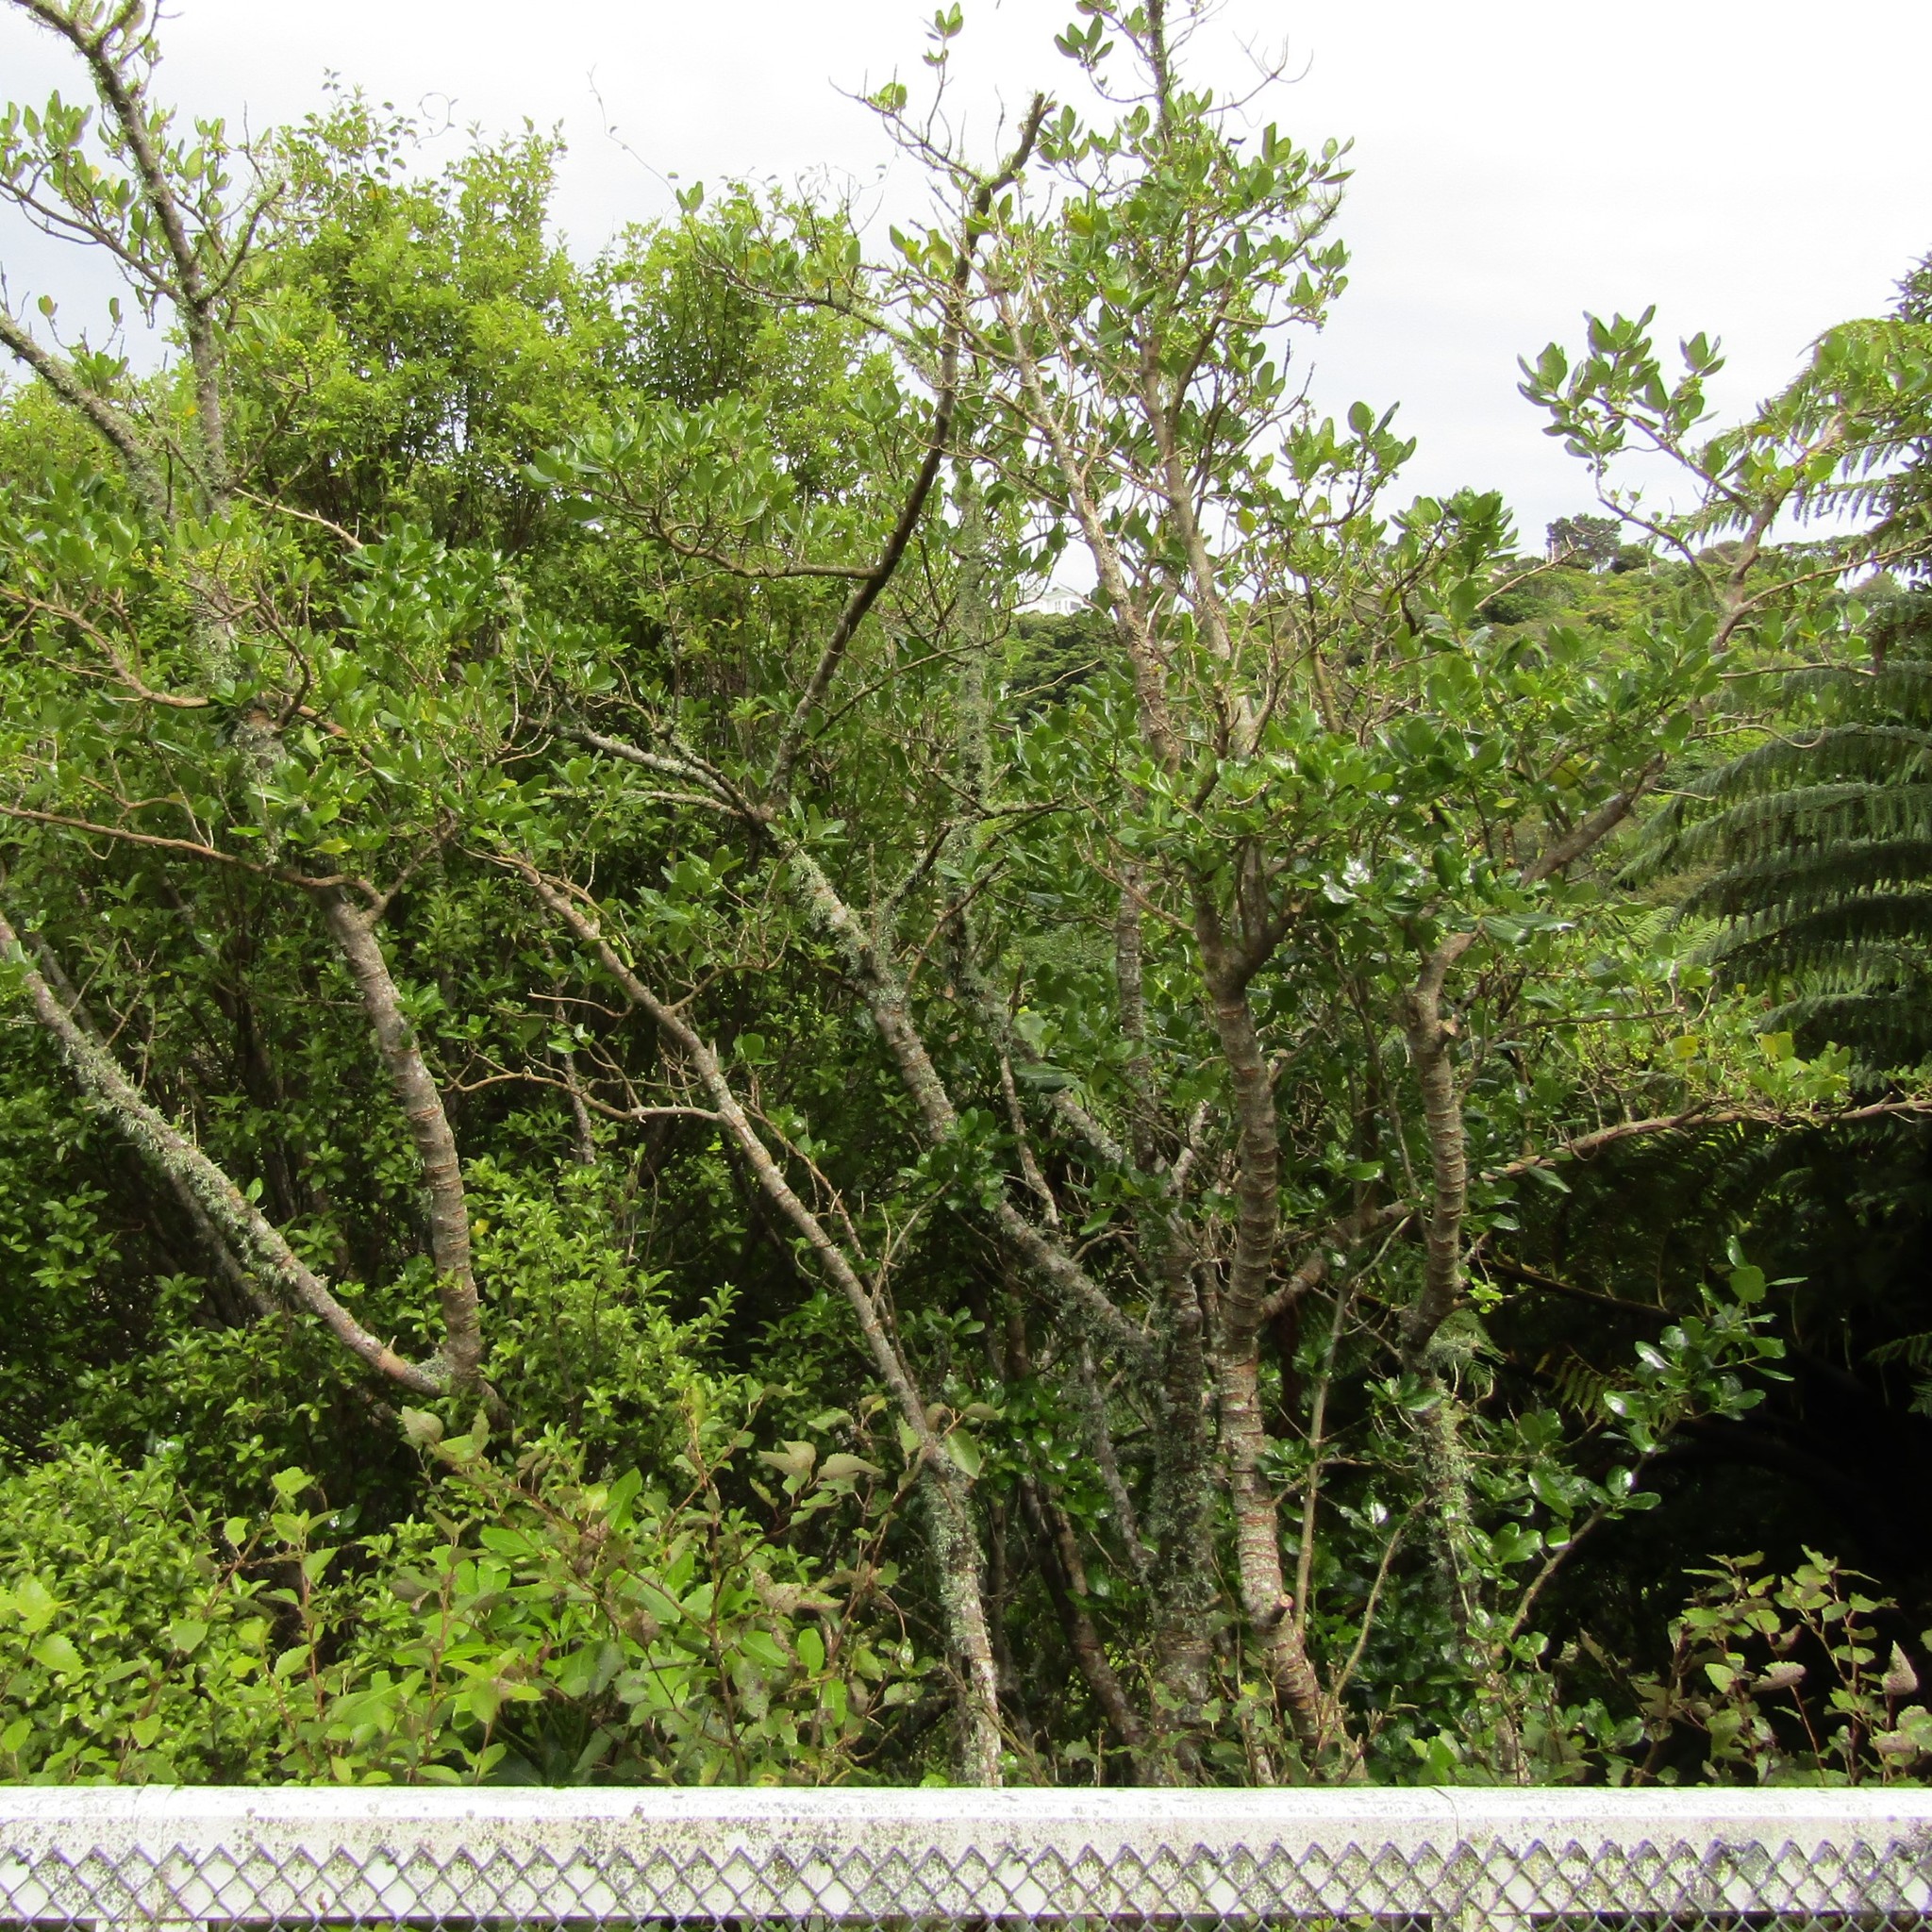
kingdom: Plantae
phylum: Tracheophyta
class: Magnoliopsida
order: Gentianales
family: Rubiaceae
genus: Coprosma
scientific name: Coprosma repens
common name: Tree bedstraw
